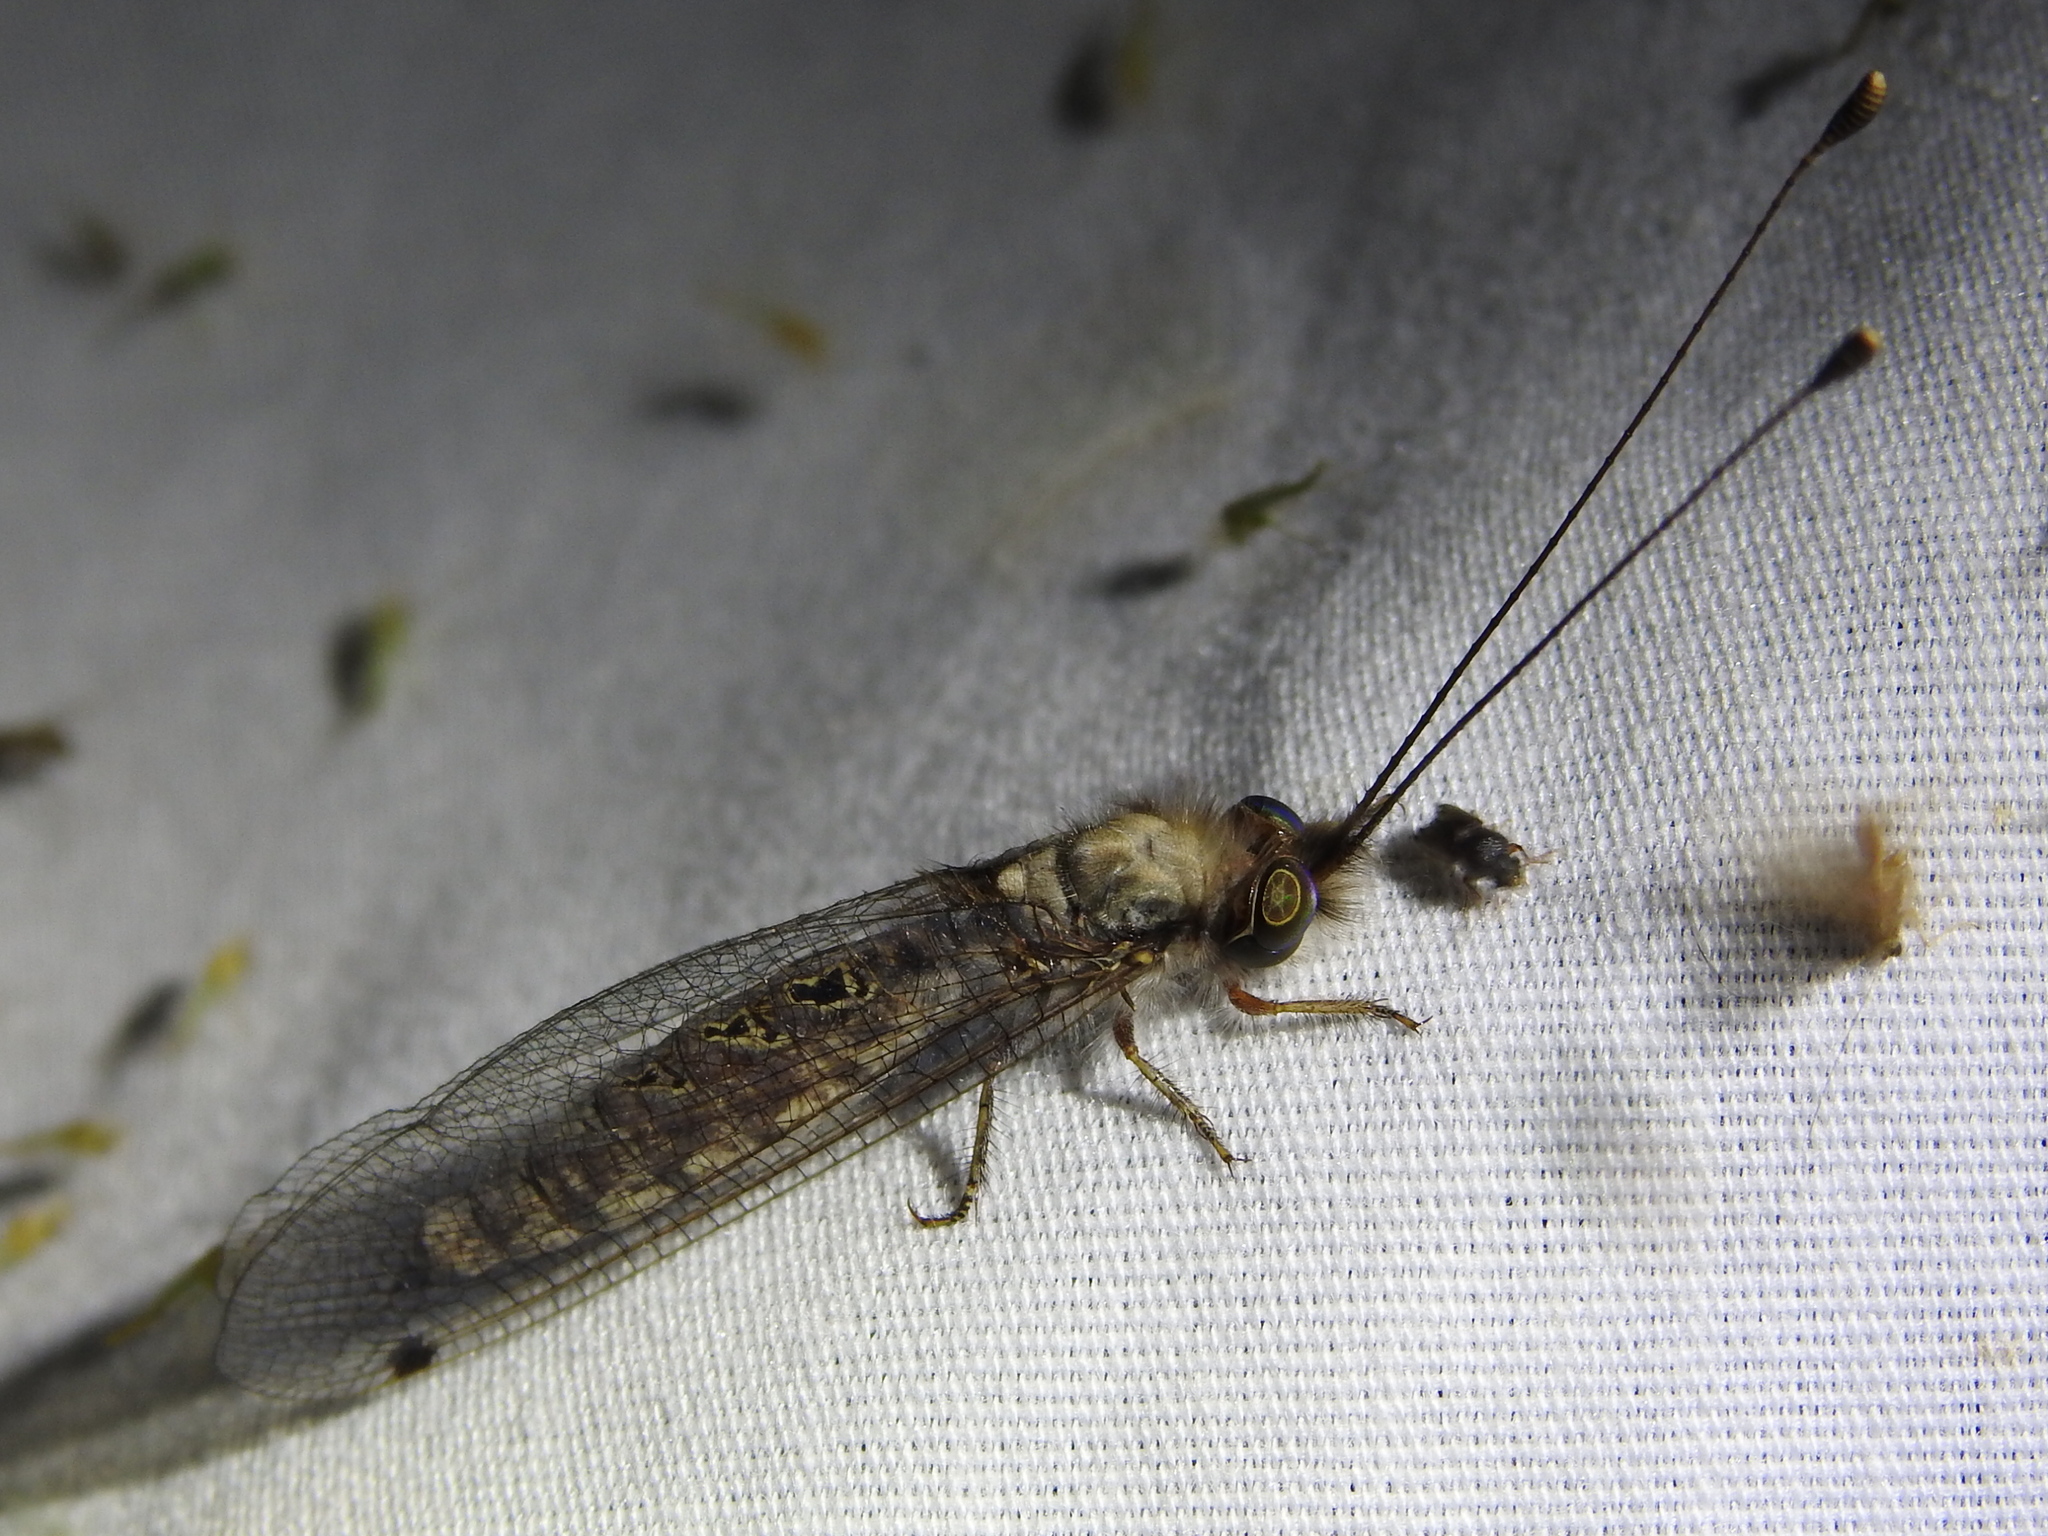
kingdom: Animalia
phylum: Arthropoda
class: Insecta
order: Neuroptera
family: Ascalaphidae
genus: Ululodes
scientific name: Ululodes macleayanus
